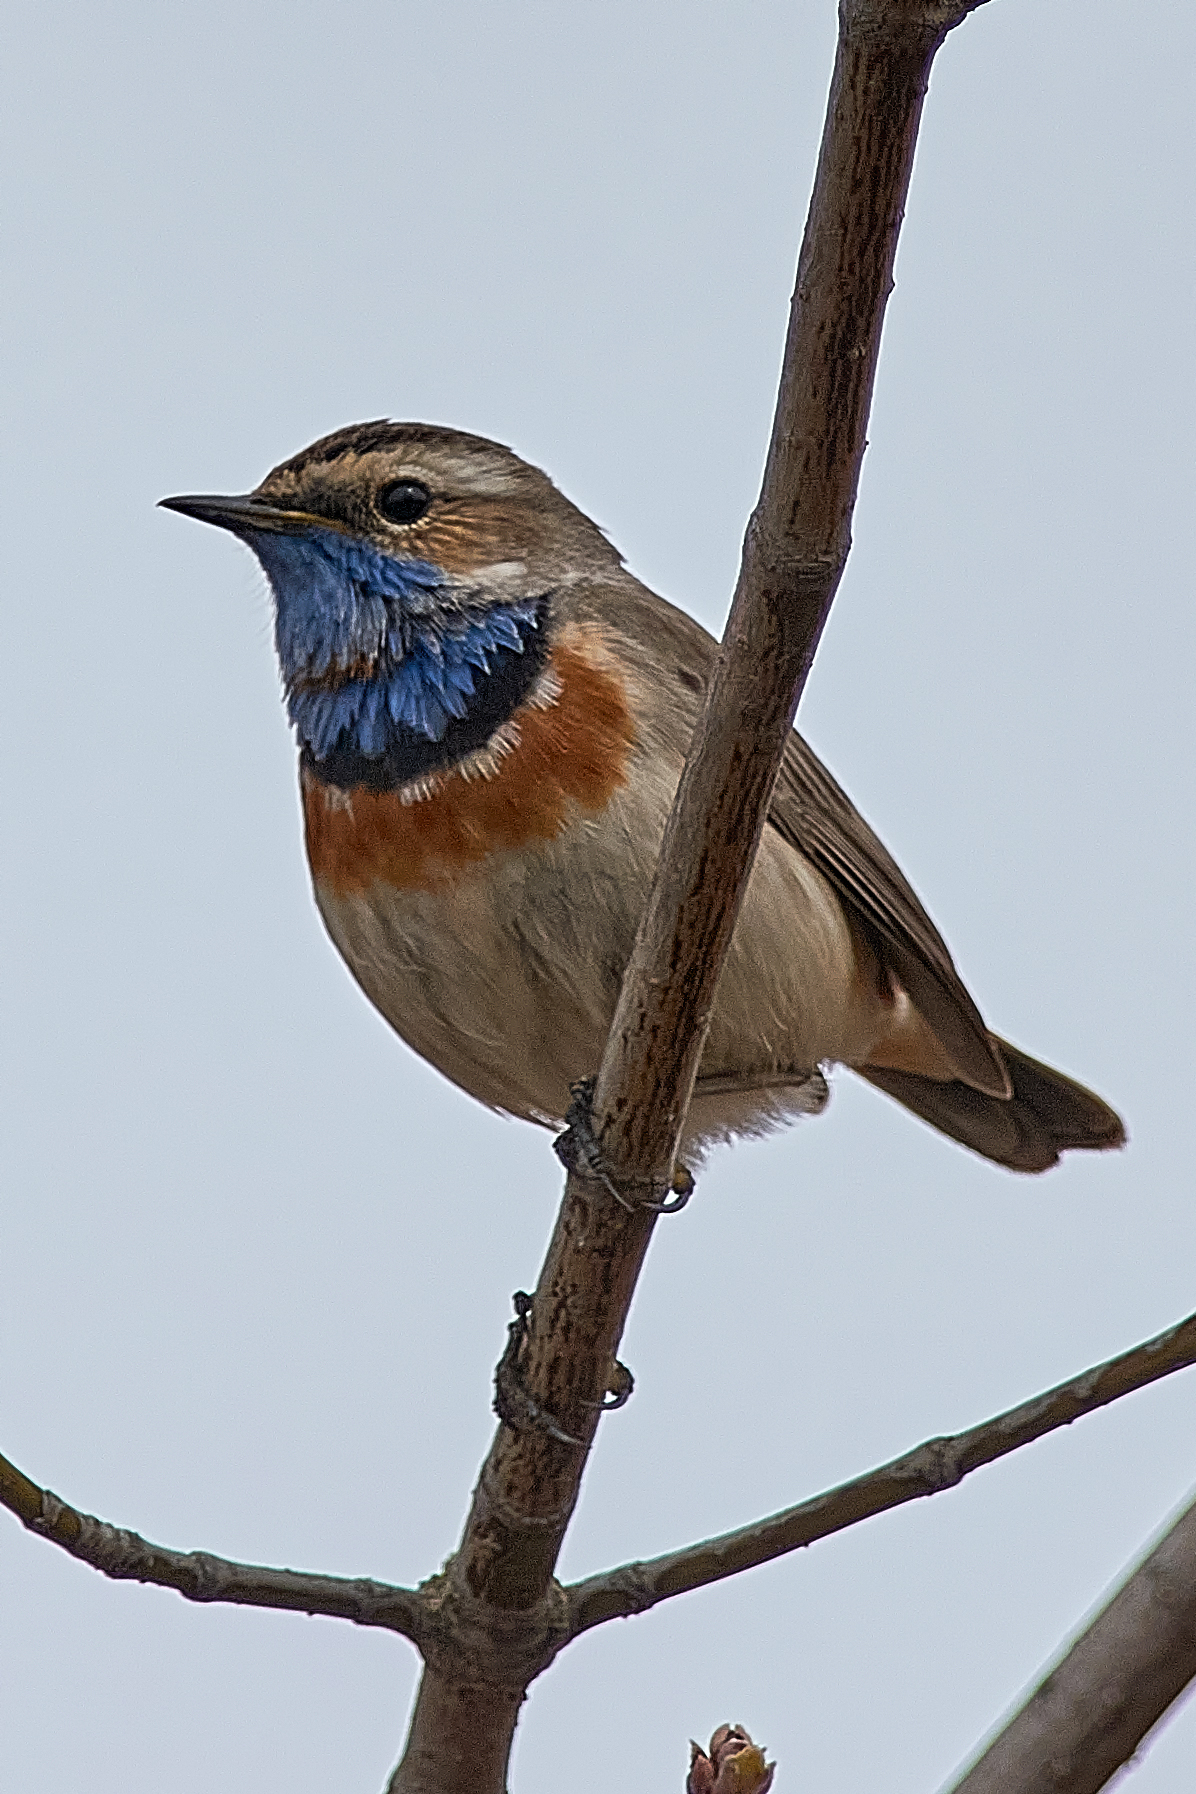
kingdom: Animalia
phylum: Chordata
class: Aves
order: Passeriformes
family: Muscicapidae
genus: Luscinia
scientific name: Luscinia svecica
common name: Bluethroat
